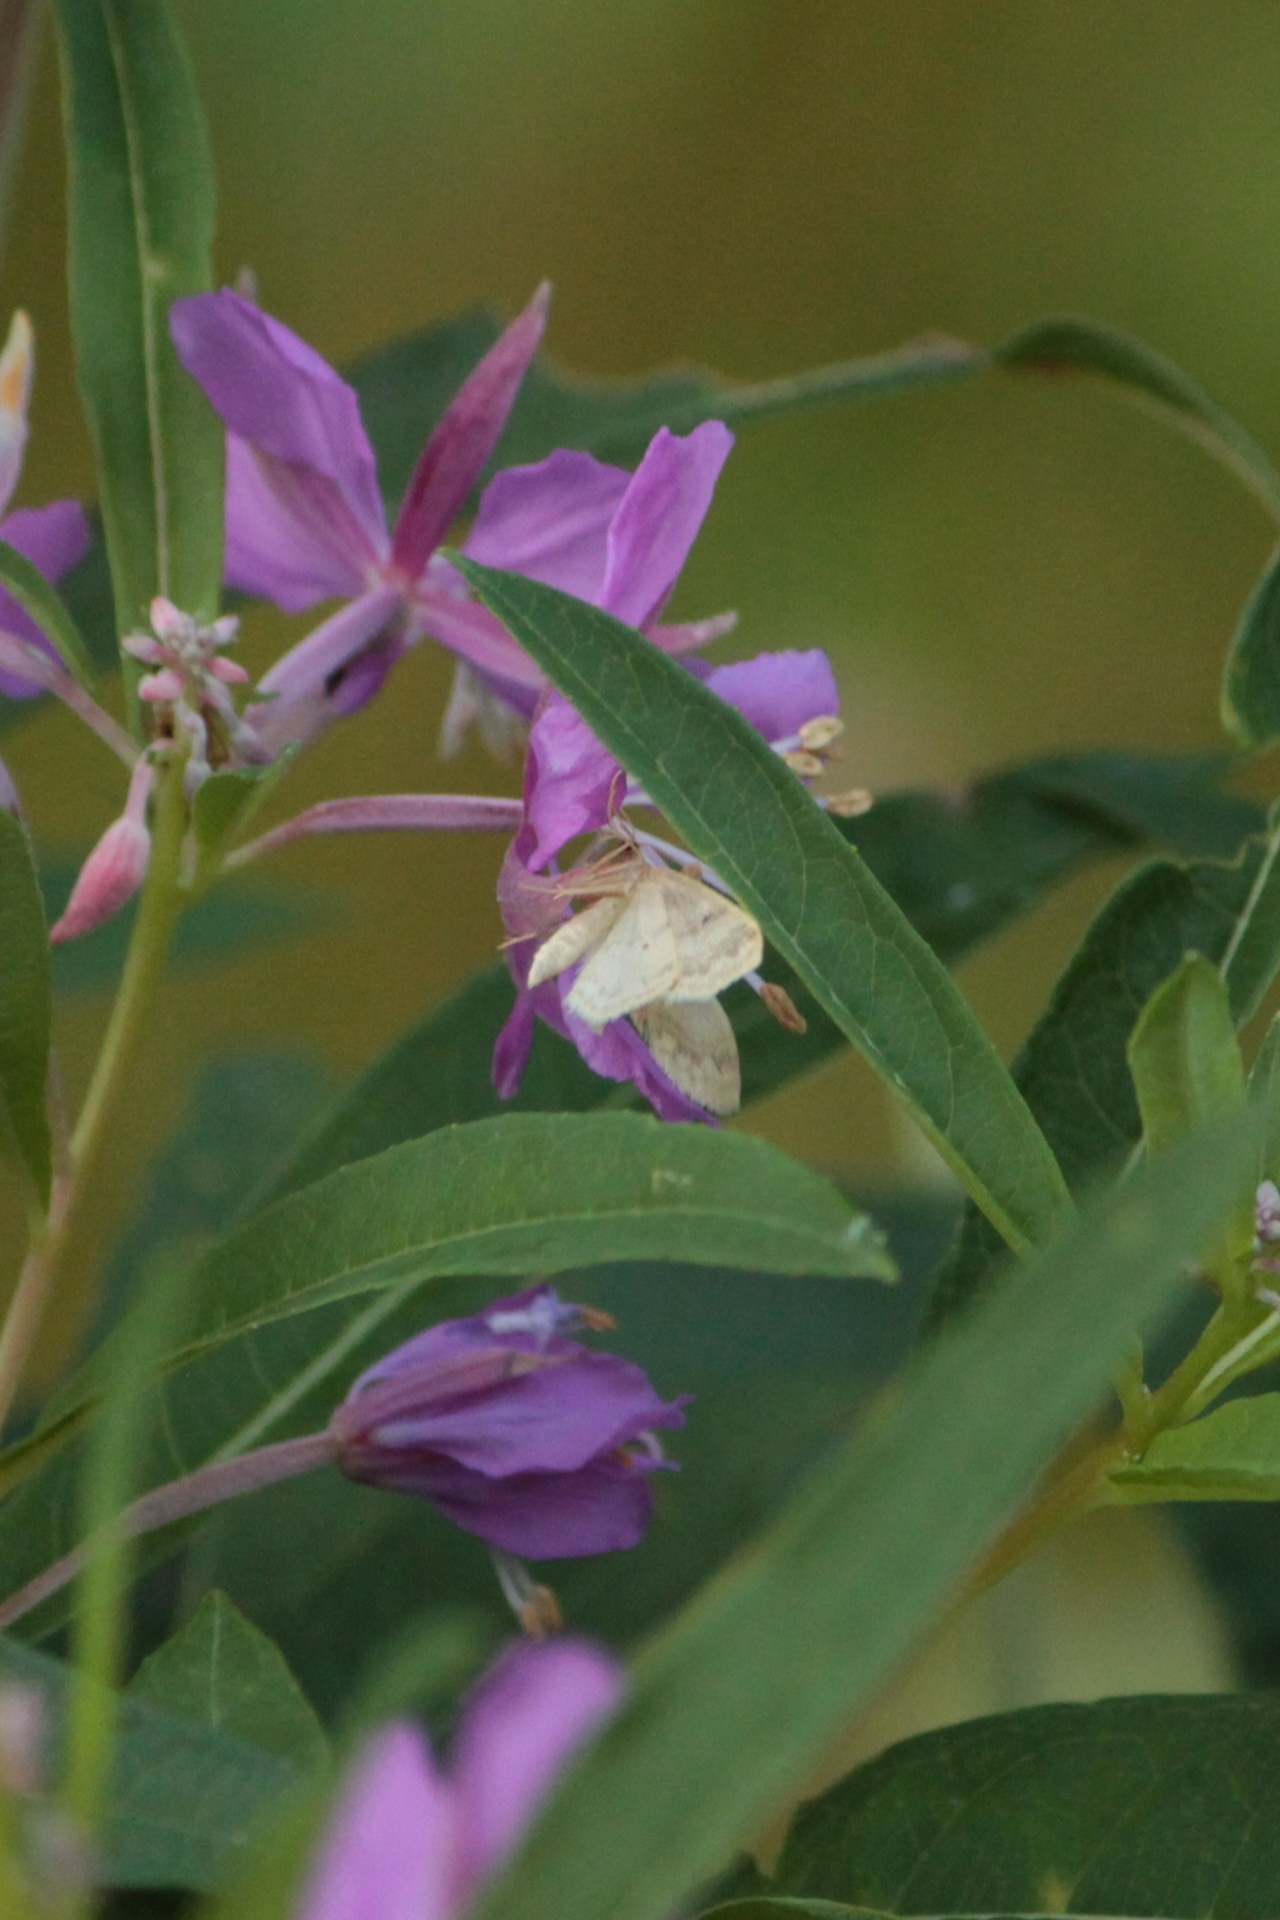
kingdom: Animalia
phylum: Arthropoda
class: Insecta
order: Lepidoptera
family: Geometridae
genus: Idaea
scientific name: Idaea biselata
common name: Small fan-footed wave
